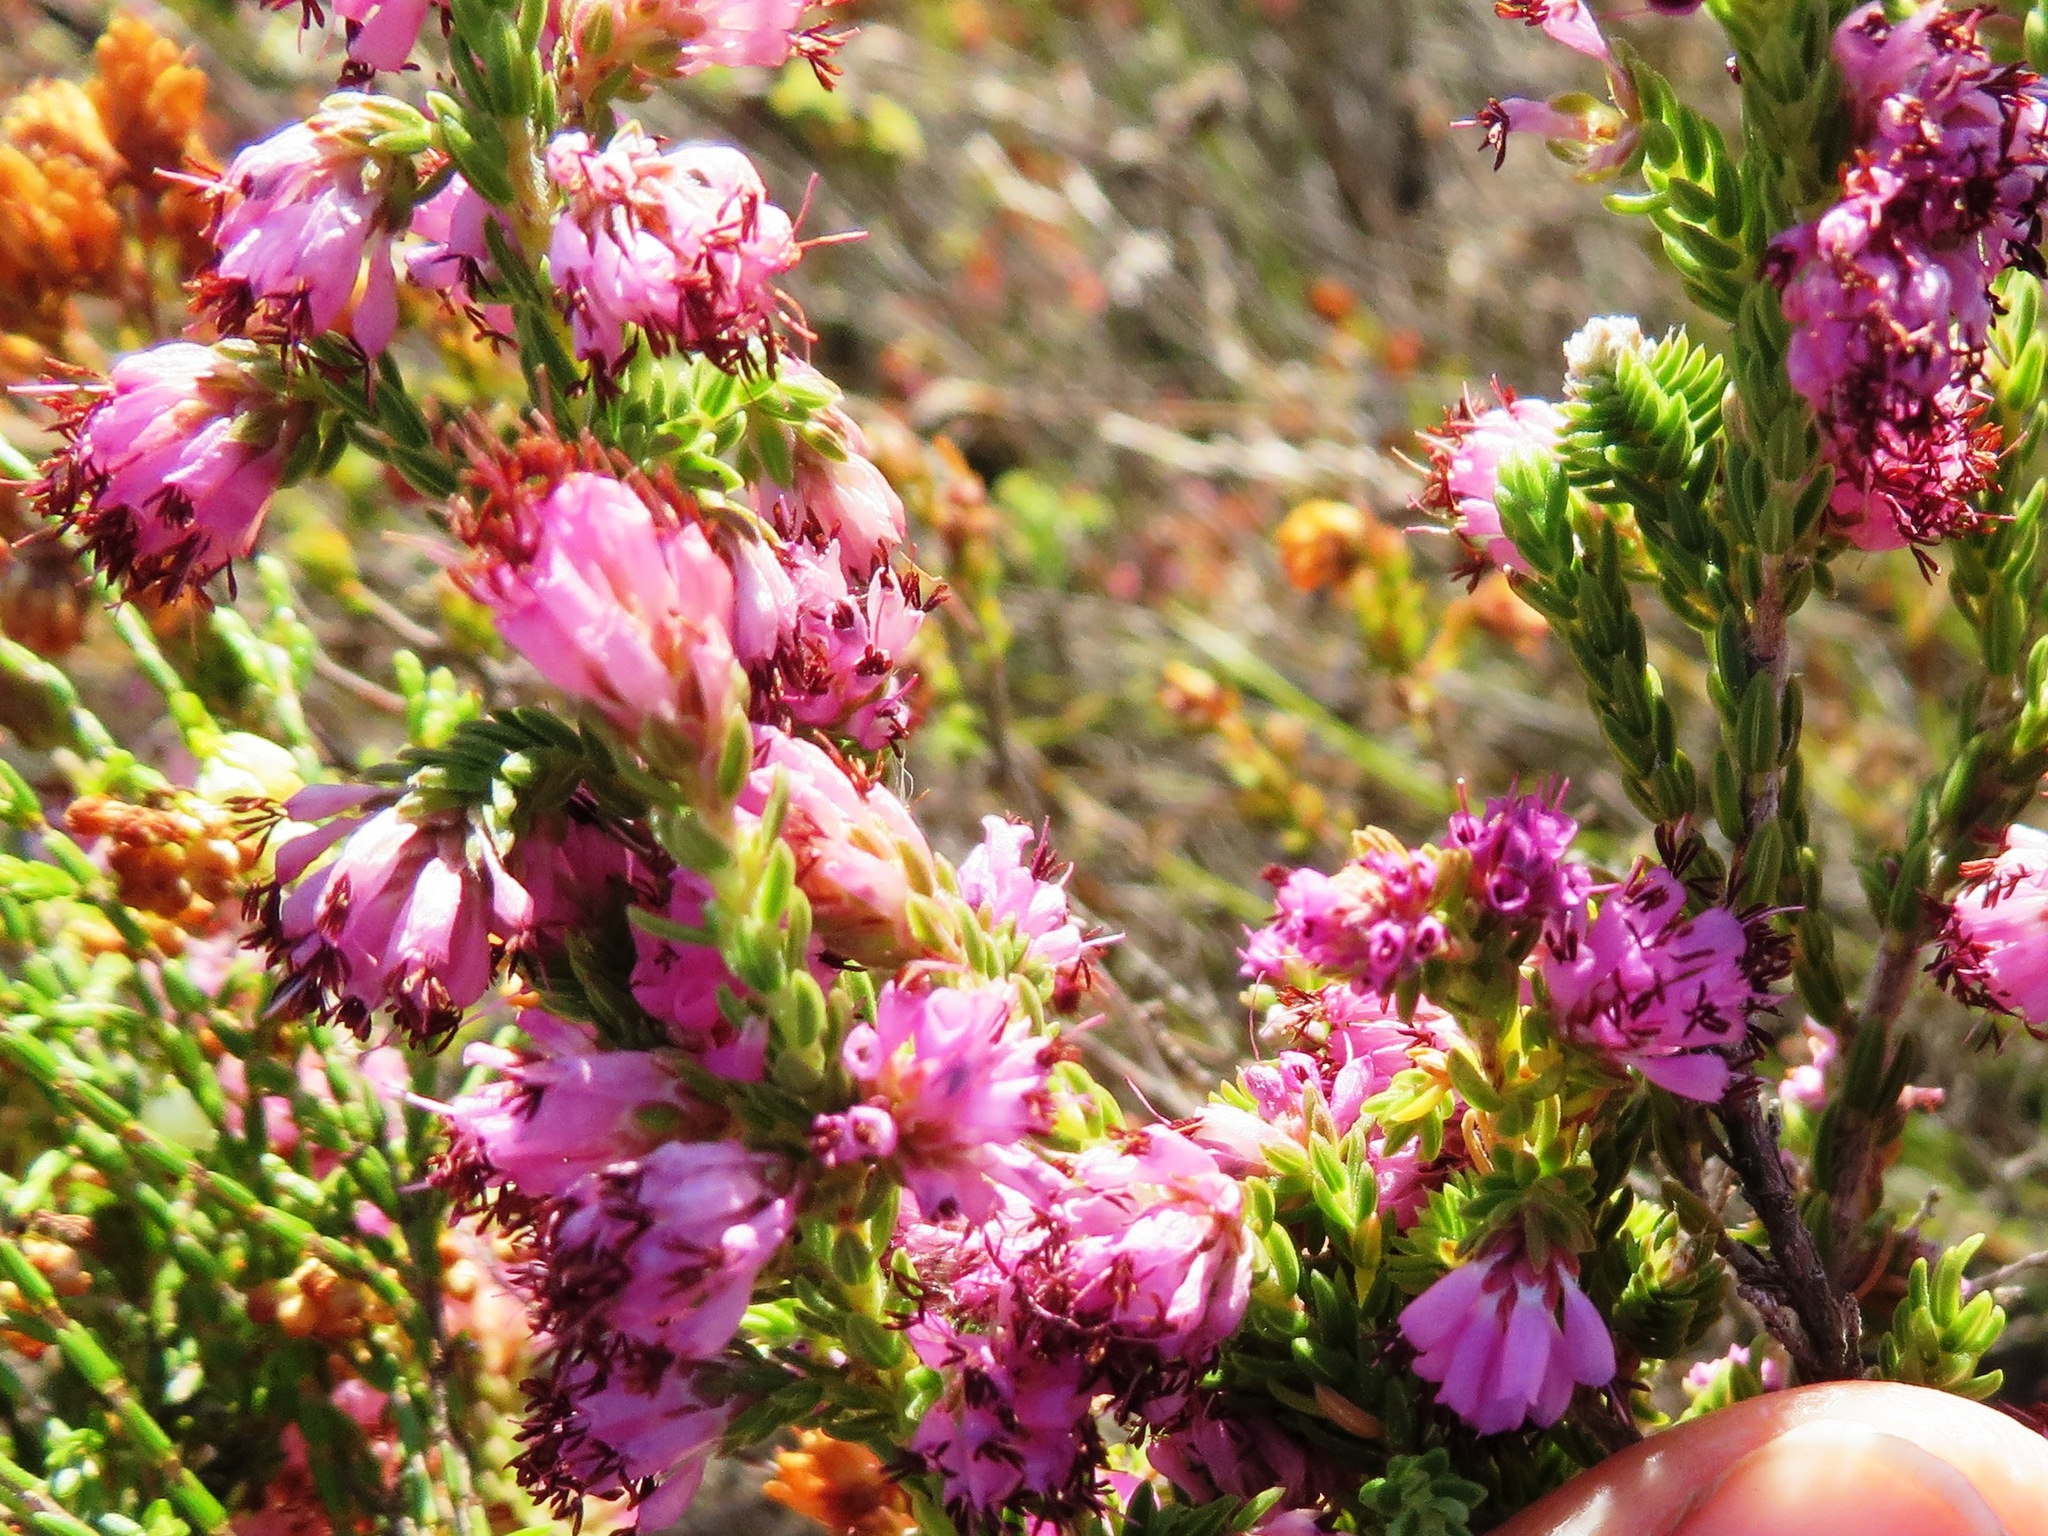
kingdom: Plantae
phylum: Tracheophyta
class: Magnoliopsida
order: Ericales
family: Ericaceae
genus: Erica
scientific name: Erica labialis
